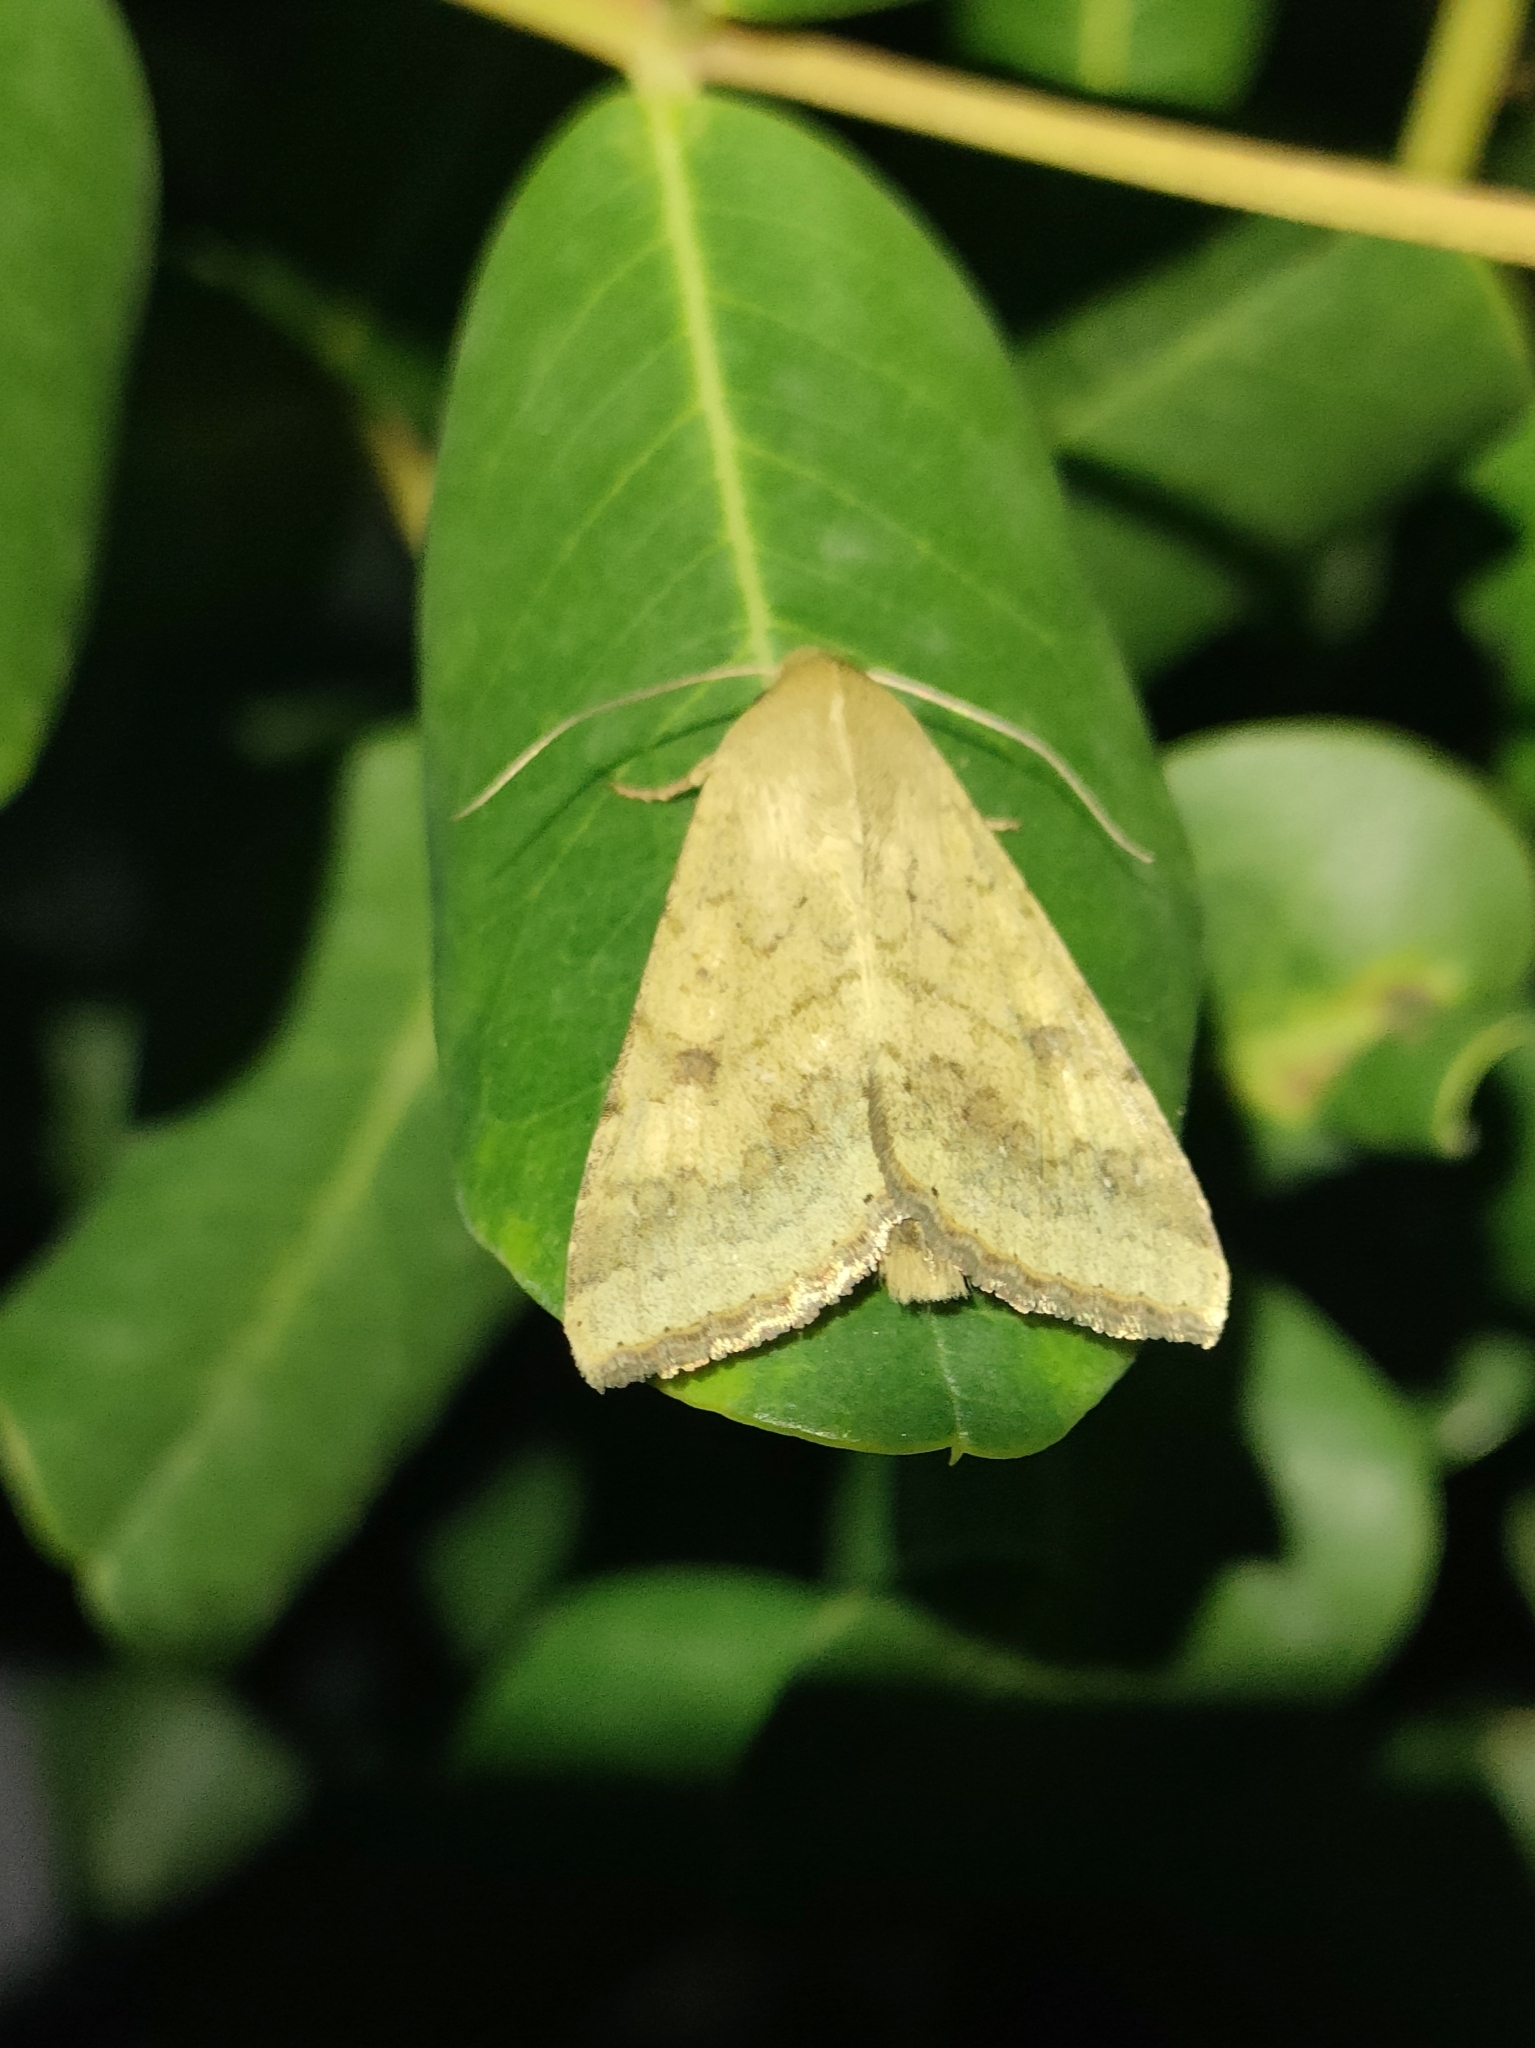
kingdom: Animalia
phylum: Arthropoda
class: Insecta
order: Lepidoptera
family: Noctuidae
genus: Helicoverpa
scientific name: Helicoverpa armigera
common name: Cotton bollworm
